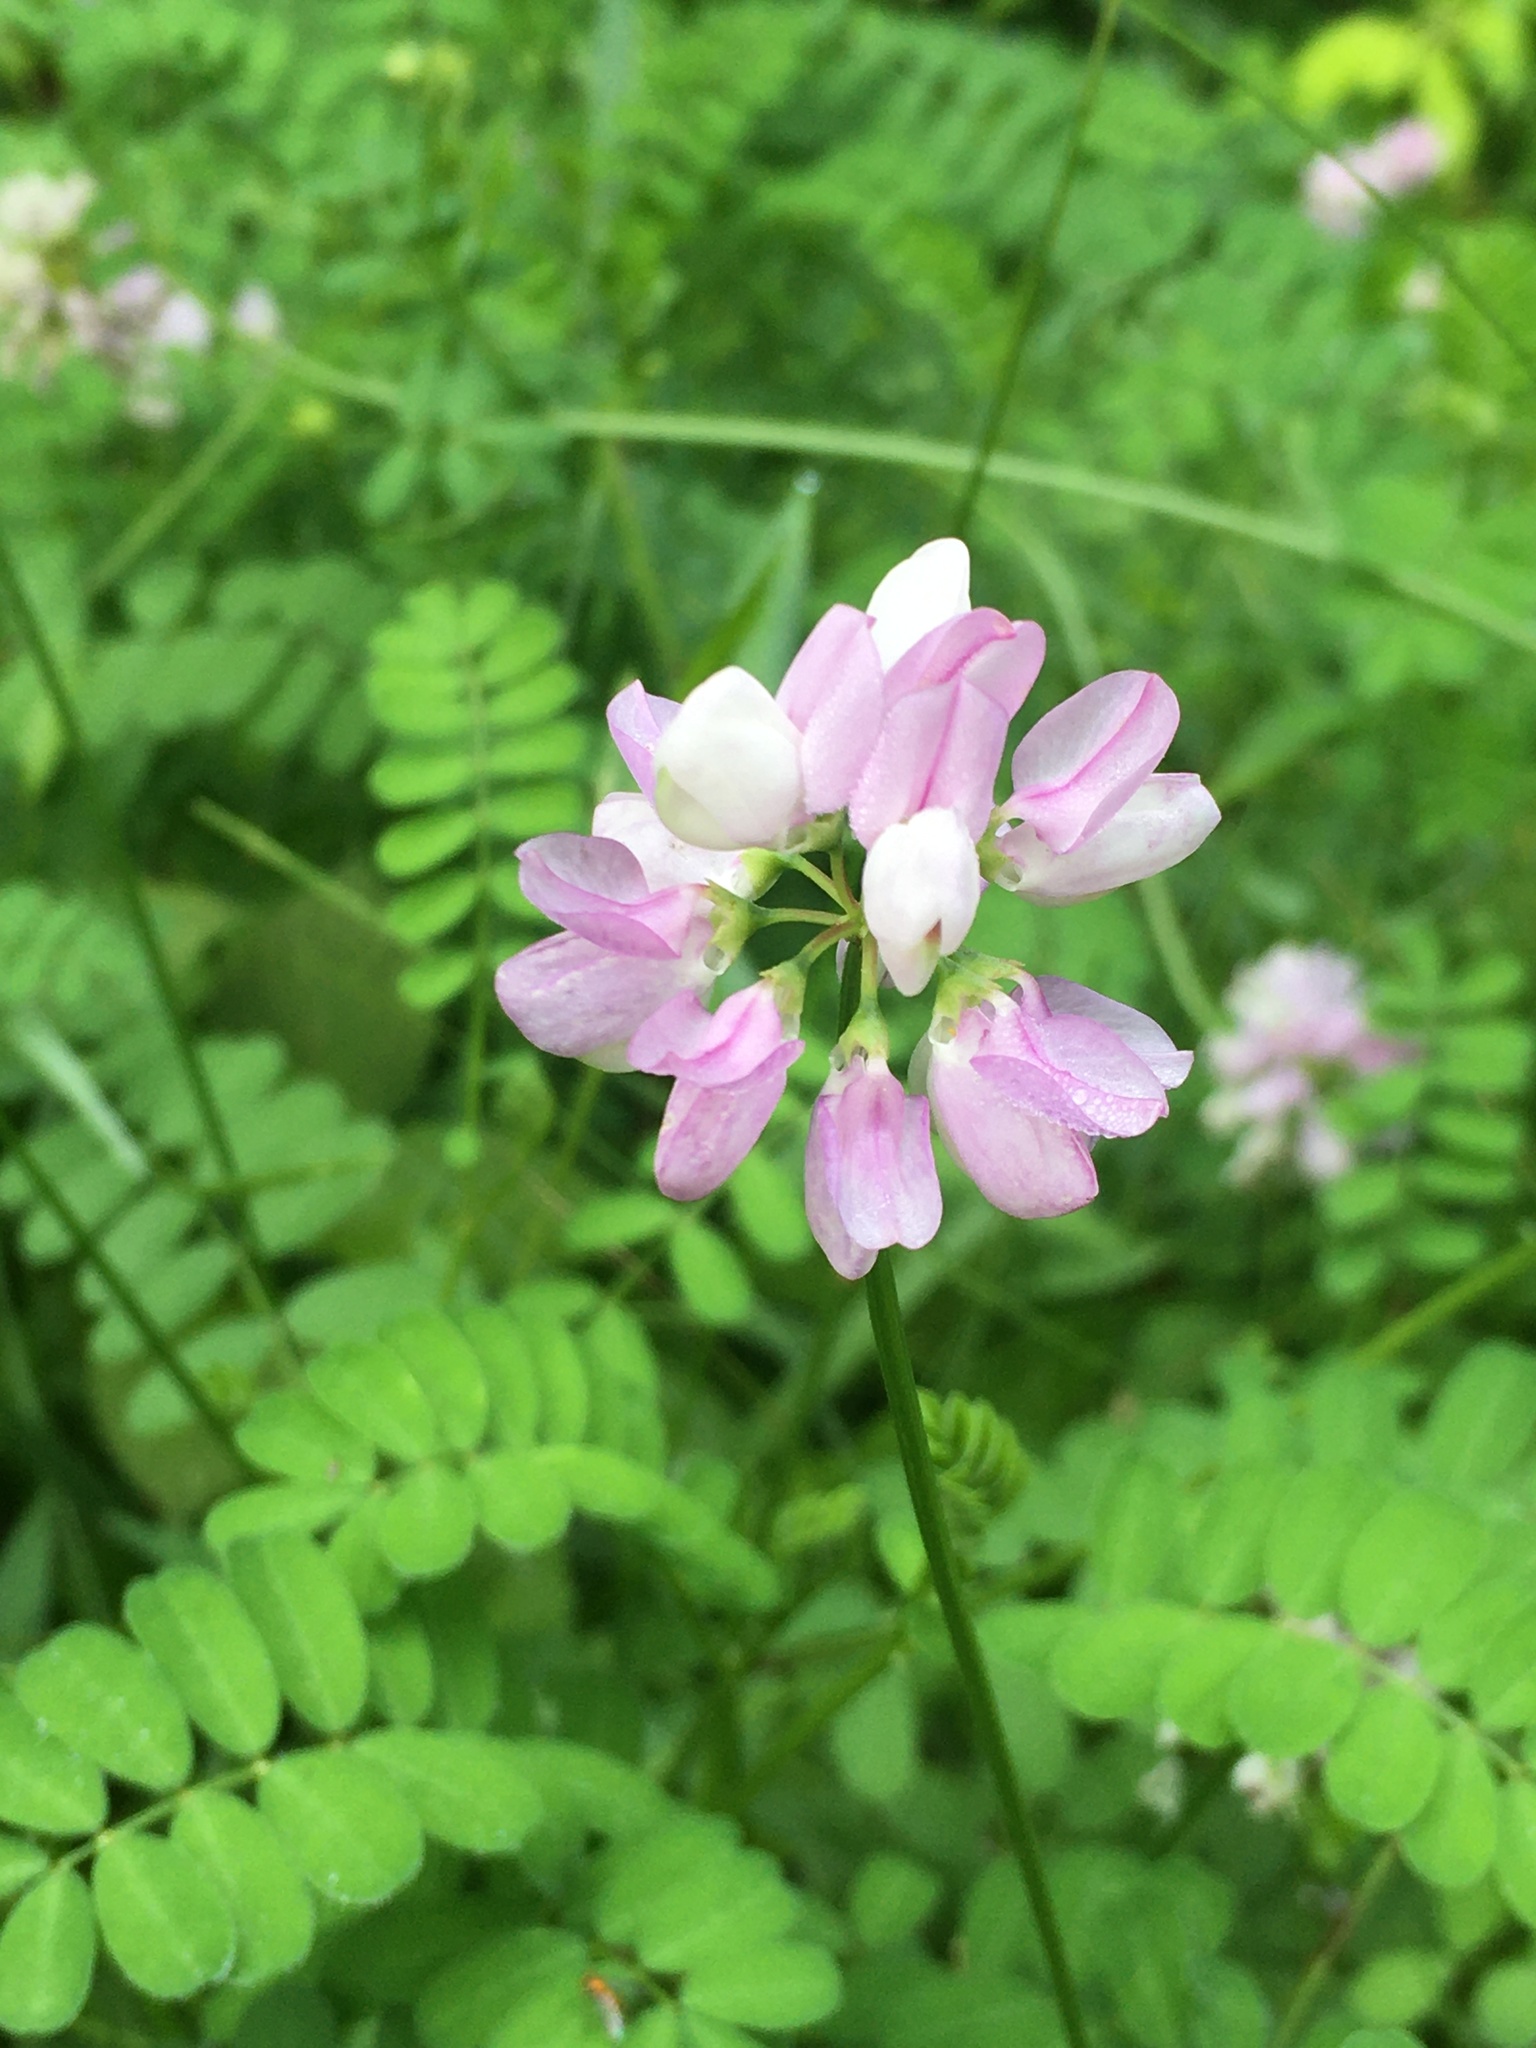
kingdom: Plantae
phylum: Tracheophyta
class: Magnoliopsida
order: Fabales
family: Fabaceae
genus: Coronilla
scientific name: Coronilla varia
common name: Crownvetch
